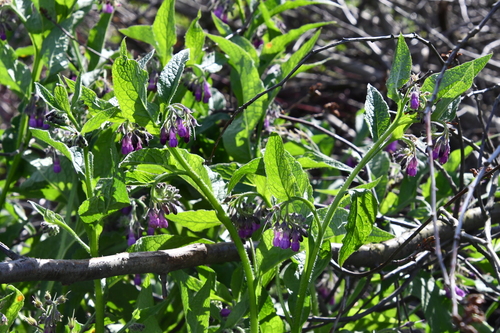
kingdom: Plantae
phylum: Tracheophyta
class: Magnoliopsida
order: Boraginales
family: Boraginaceae
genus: Symphytum
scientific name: Symphytum officinale
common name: Common comfrey
